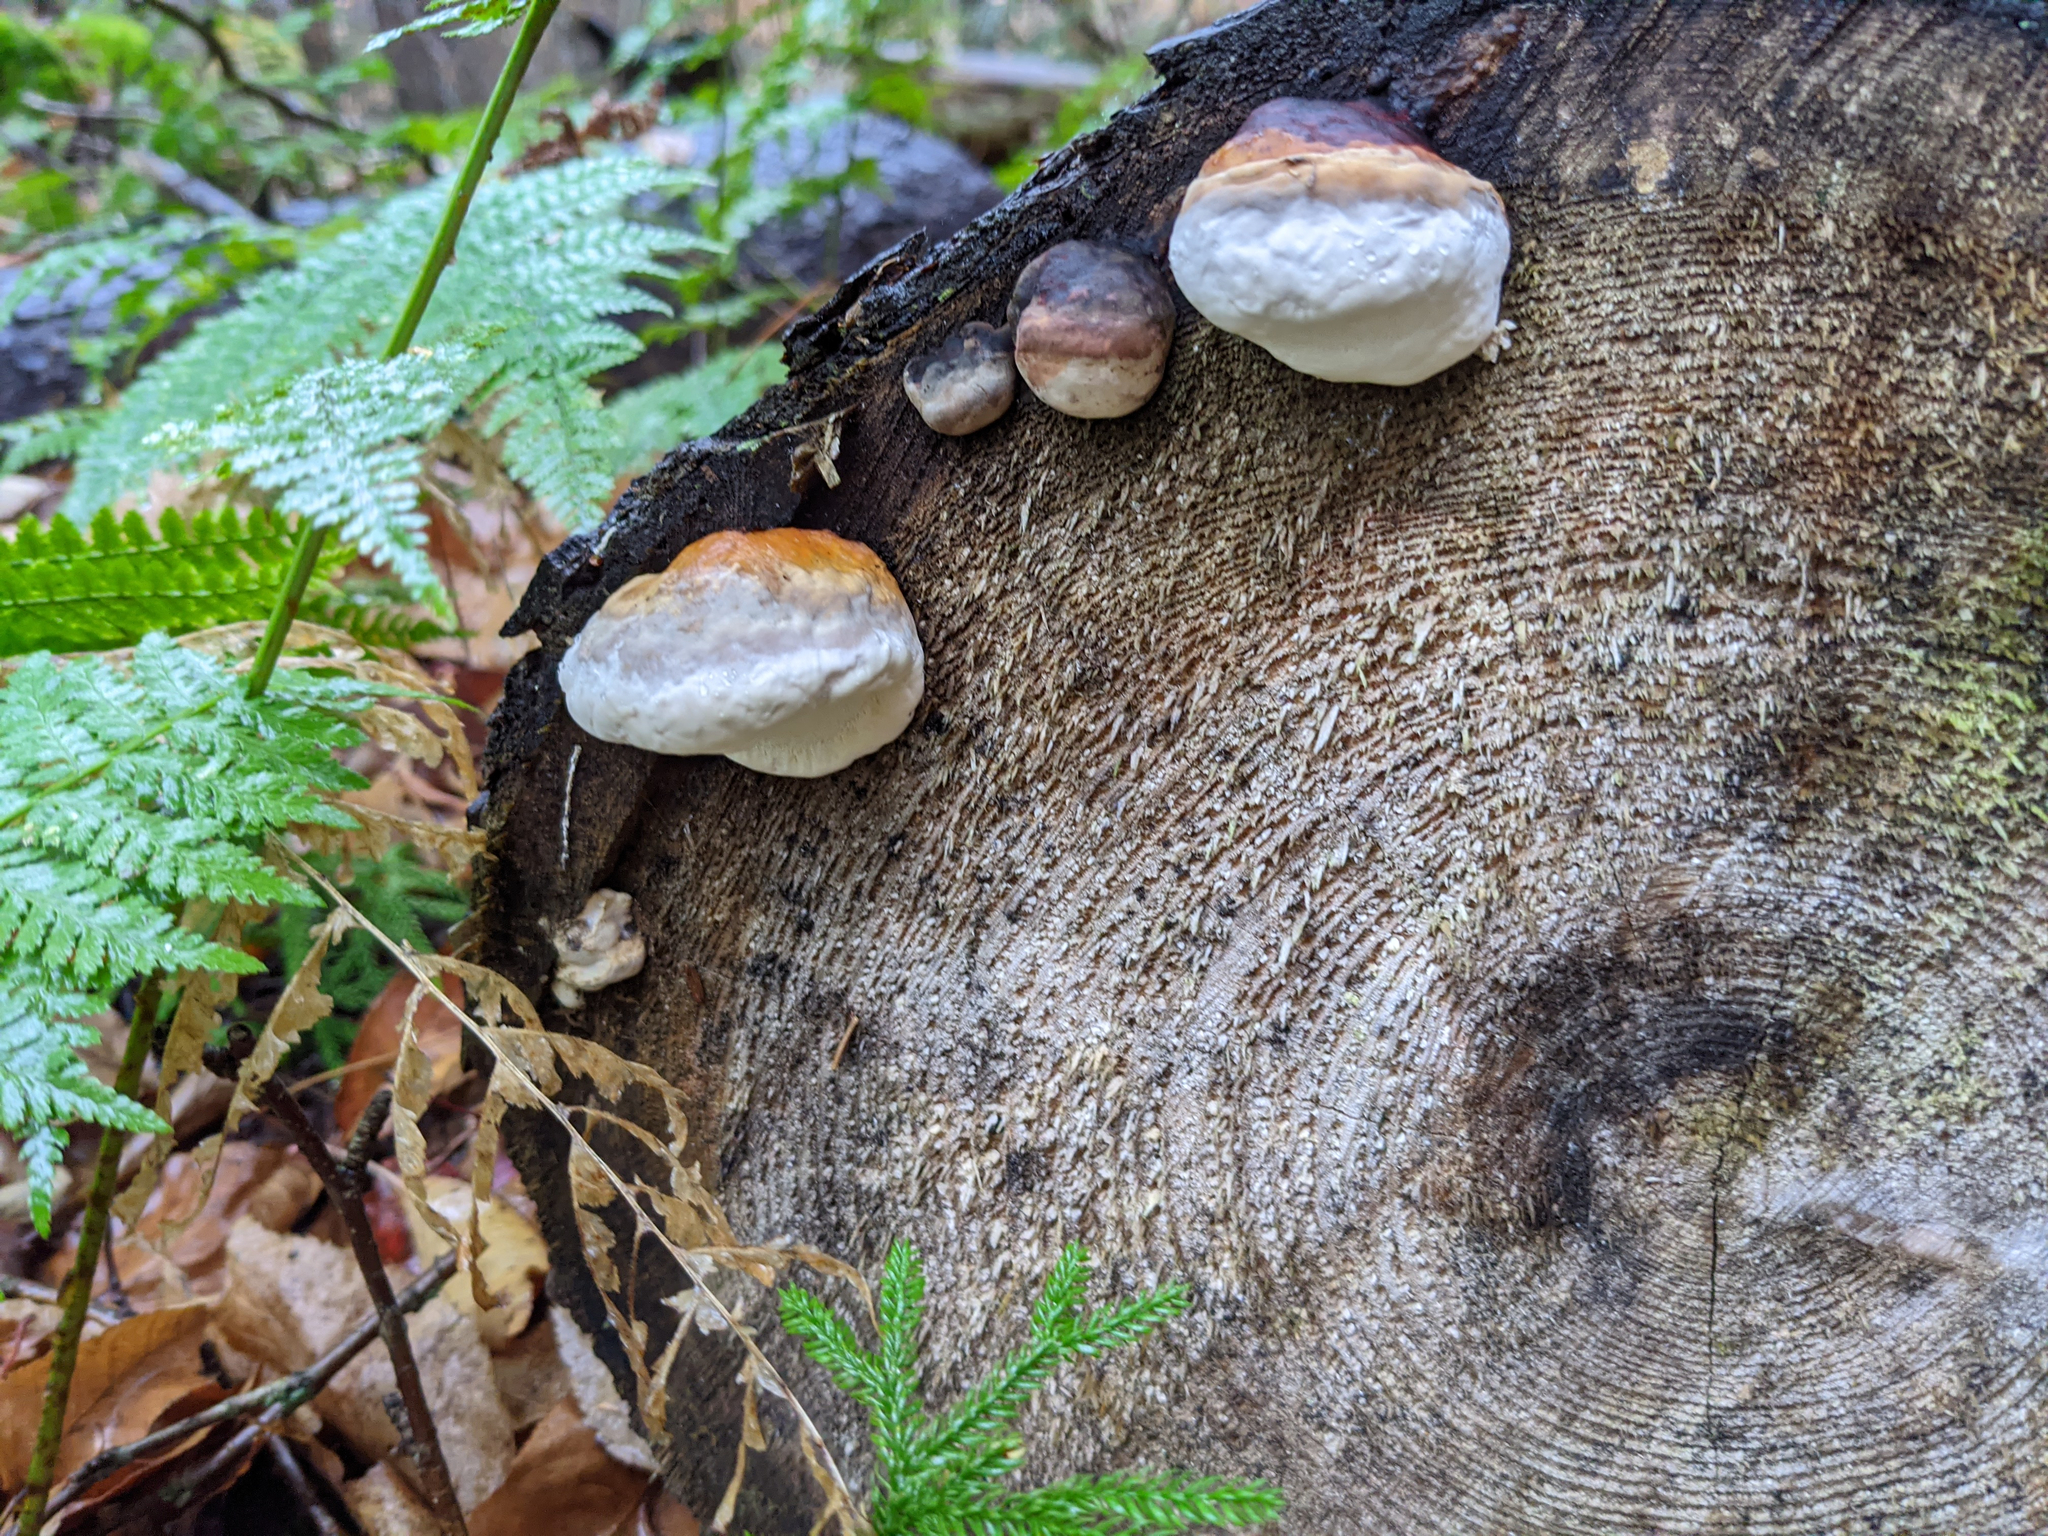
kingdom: Fungi
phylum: Basidiomycota
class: Agaricomycetes
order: Polyporales
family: Fomitopsidaceae
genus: Fomitopsis
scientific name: Fomitopsis mounceae
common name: Northern red belt
